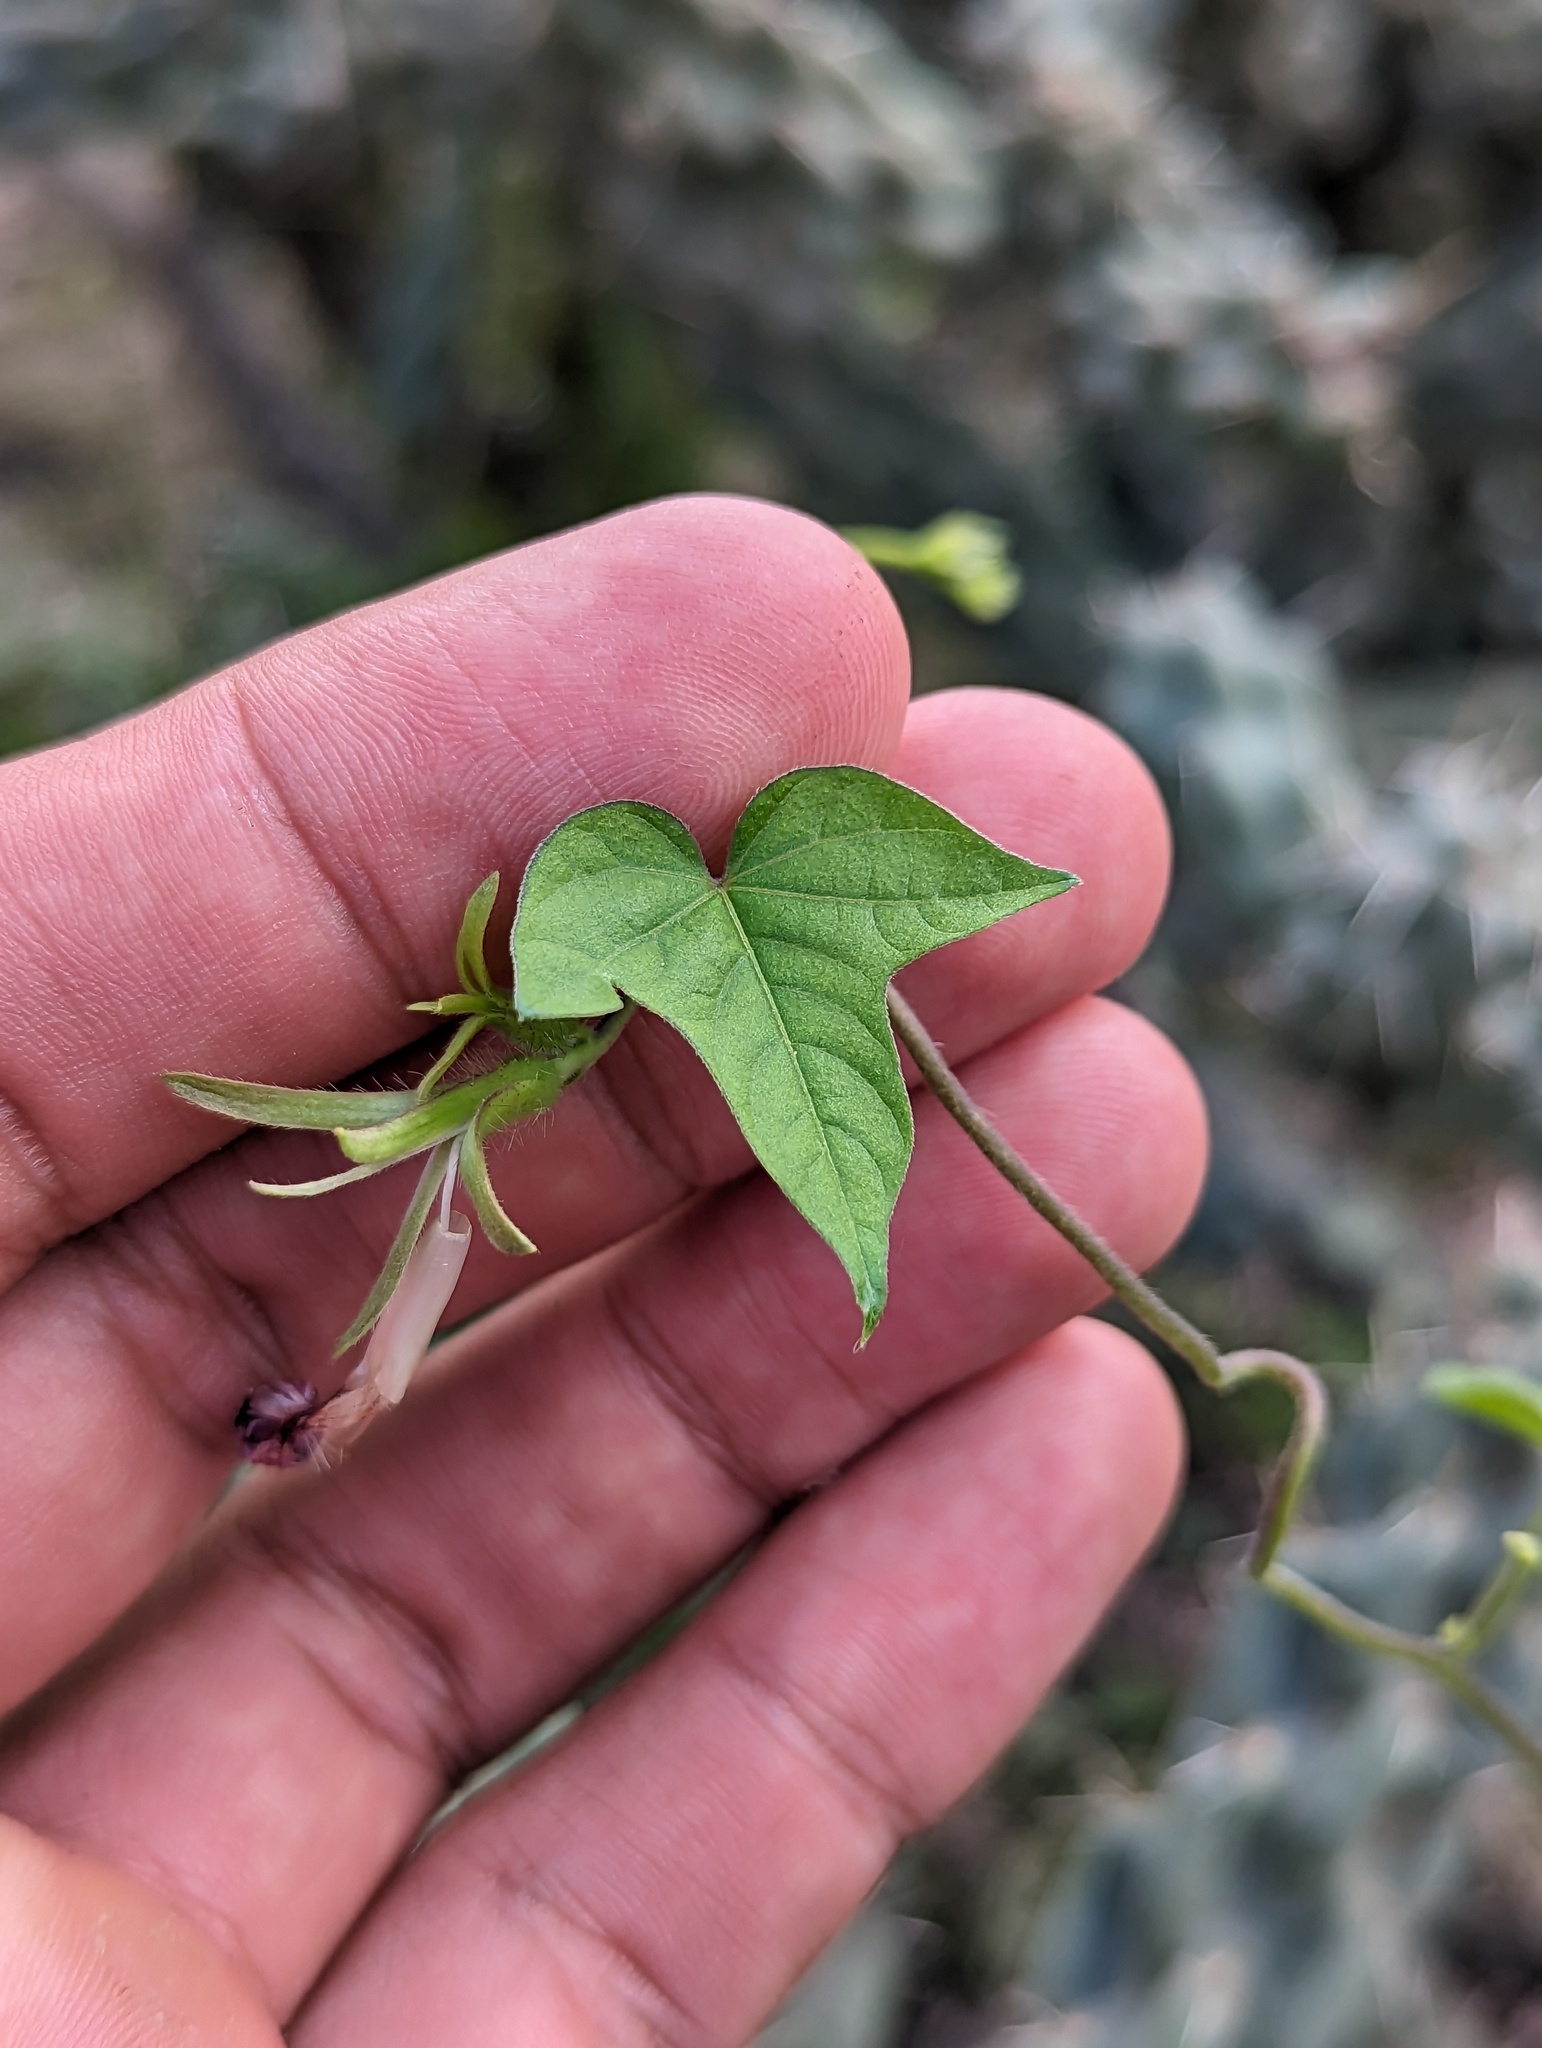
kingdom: Plantae
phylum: Tracheophyta
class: Magnoliopsida
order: Solanales
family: Convolvulaceae
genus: Ipomoea
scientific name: Ipomoea
